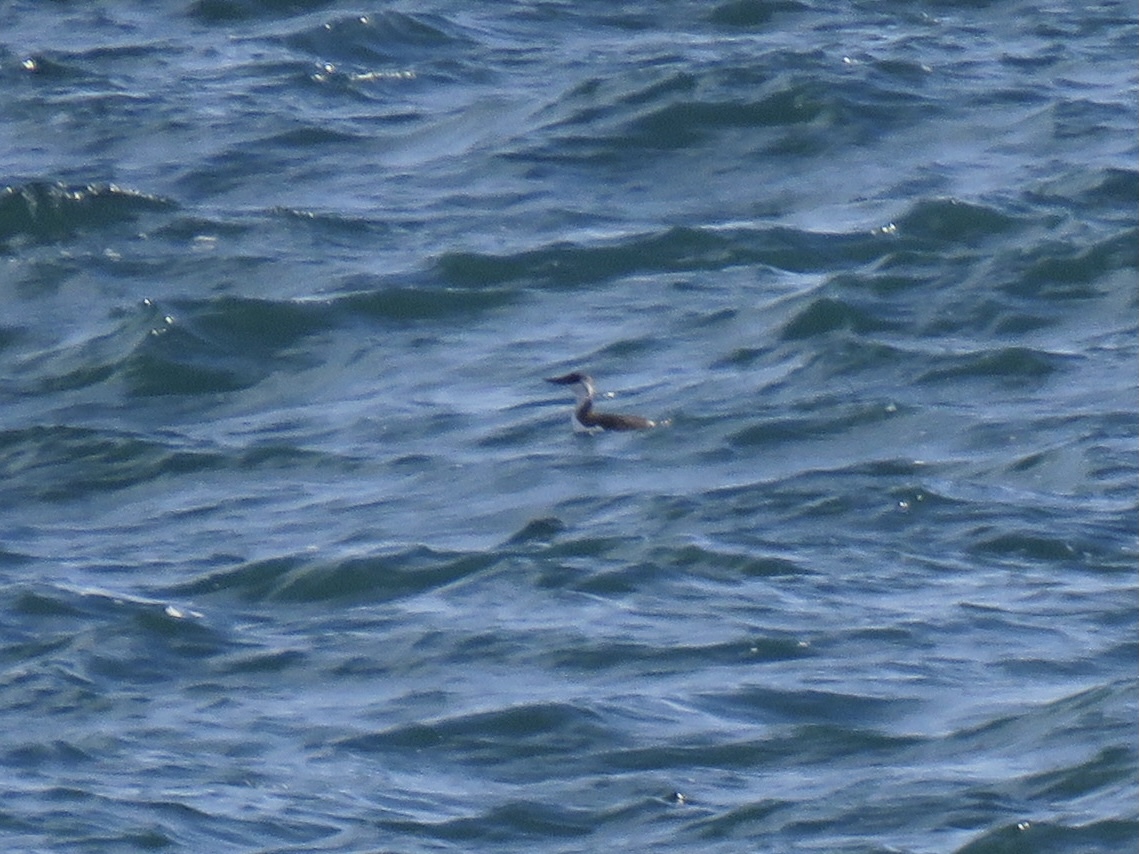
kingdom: Animalia
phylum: Chordata
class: Aves
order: Charadriiformes
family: Alcidae
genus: Uria
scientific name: Uria aalge
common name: Common murre
